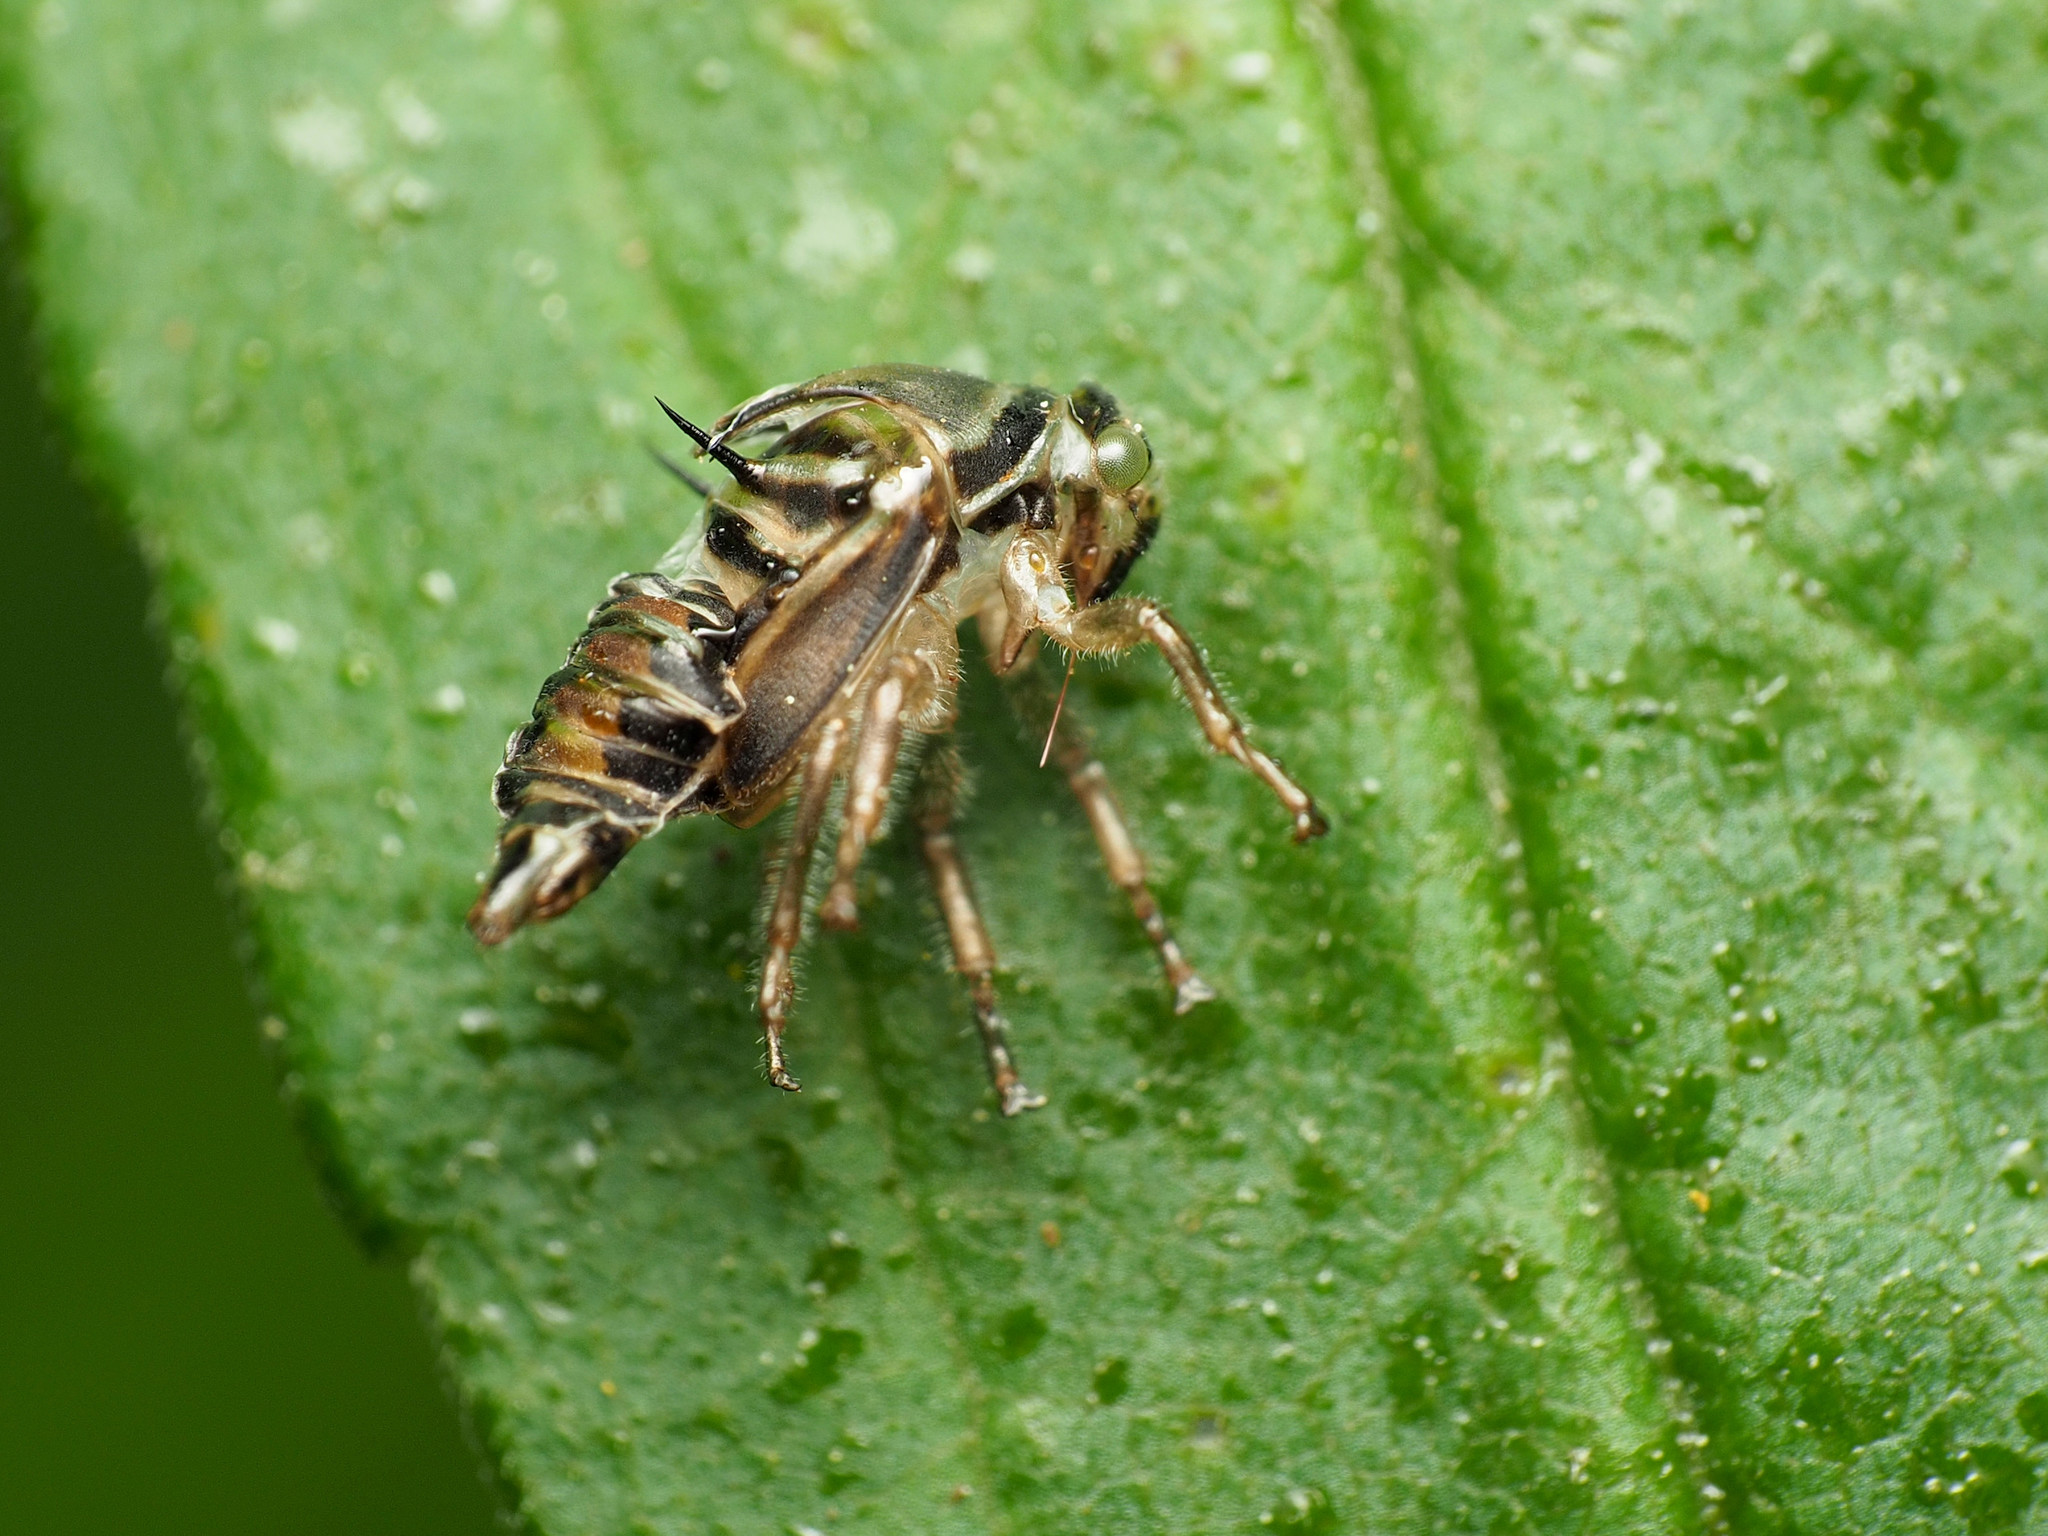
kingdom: Animalia
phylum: Arthropoda
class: Insecta
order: Hemiptera
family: Membracidae
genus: Platycotis
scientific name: Platycotis vittatus
